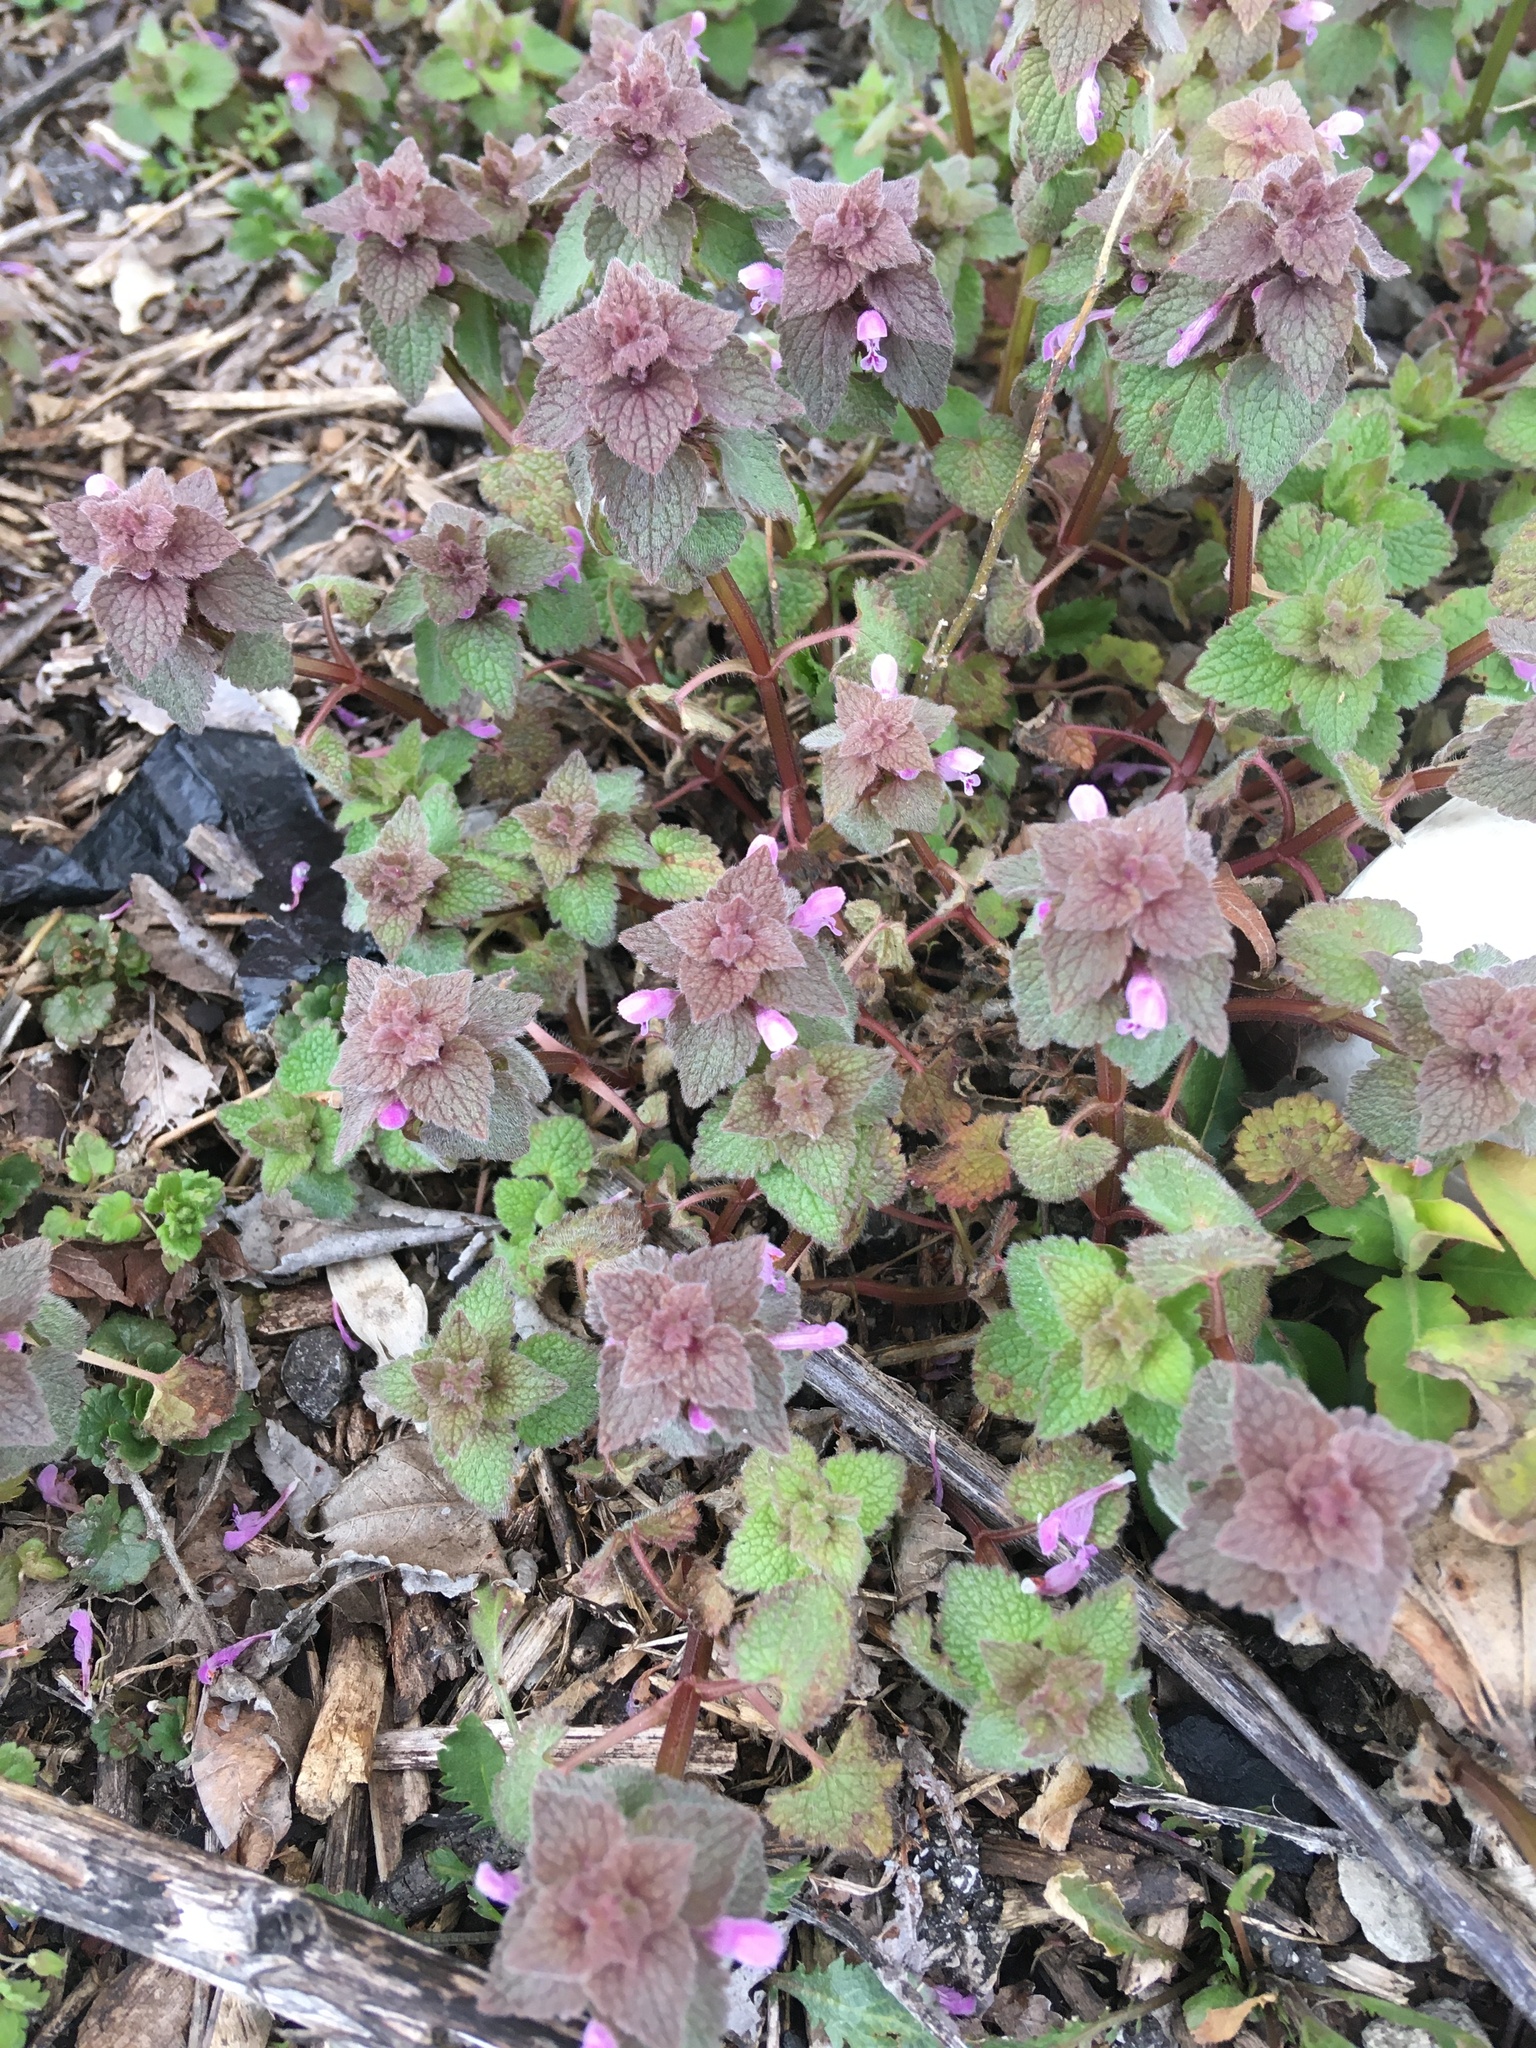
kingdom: Plantae
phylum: Tracheophyta
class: Magnoliopsida
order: Lamiales
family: Lamiaceae
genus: Lamium
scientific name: Lamium purpureum
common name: Red dead-nettle
